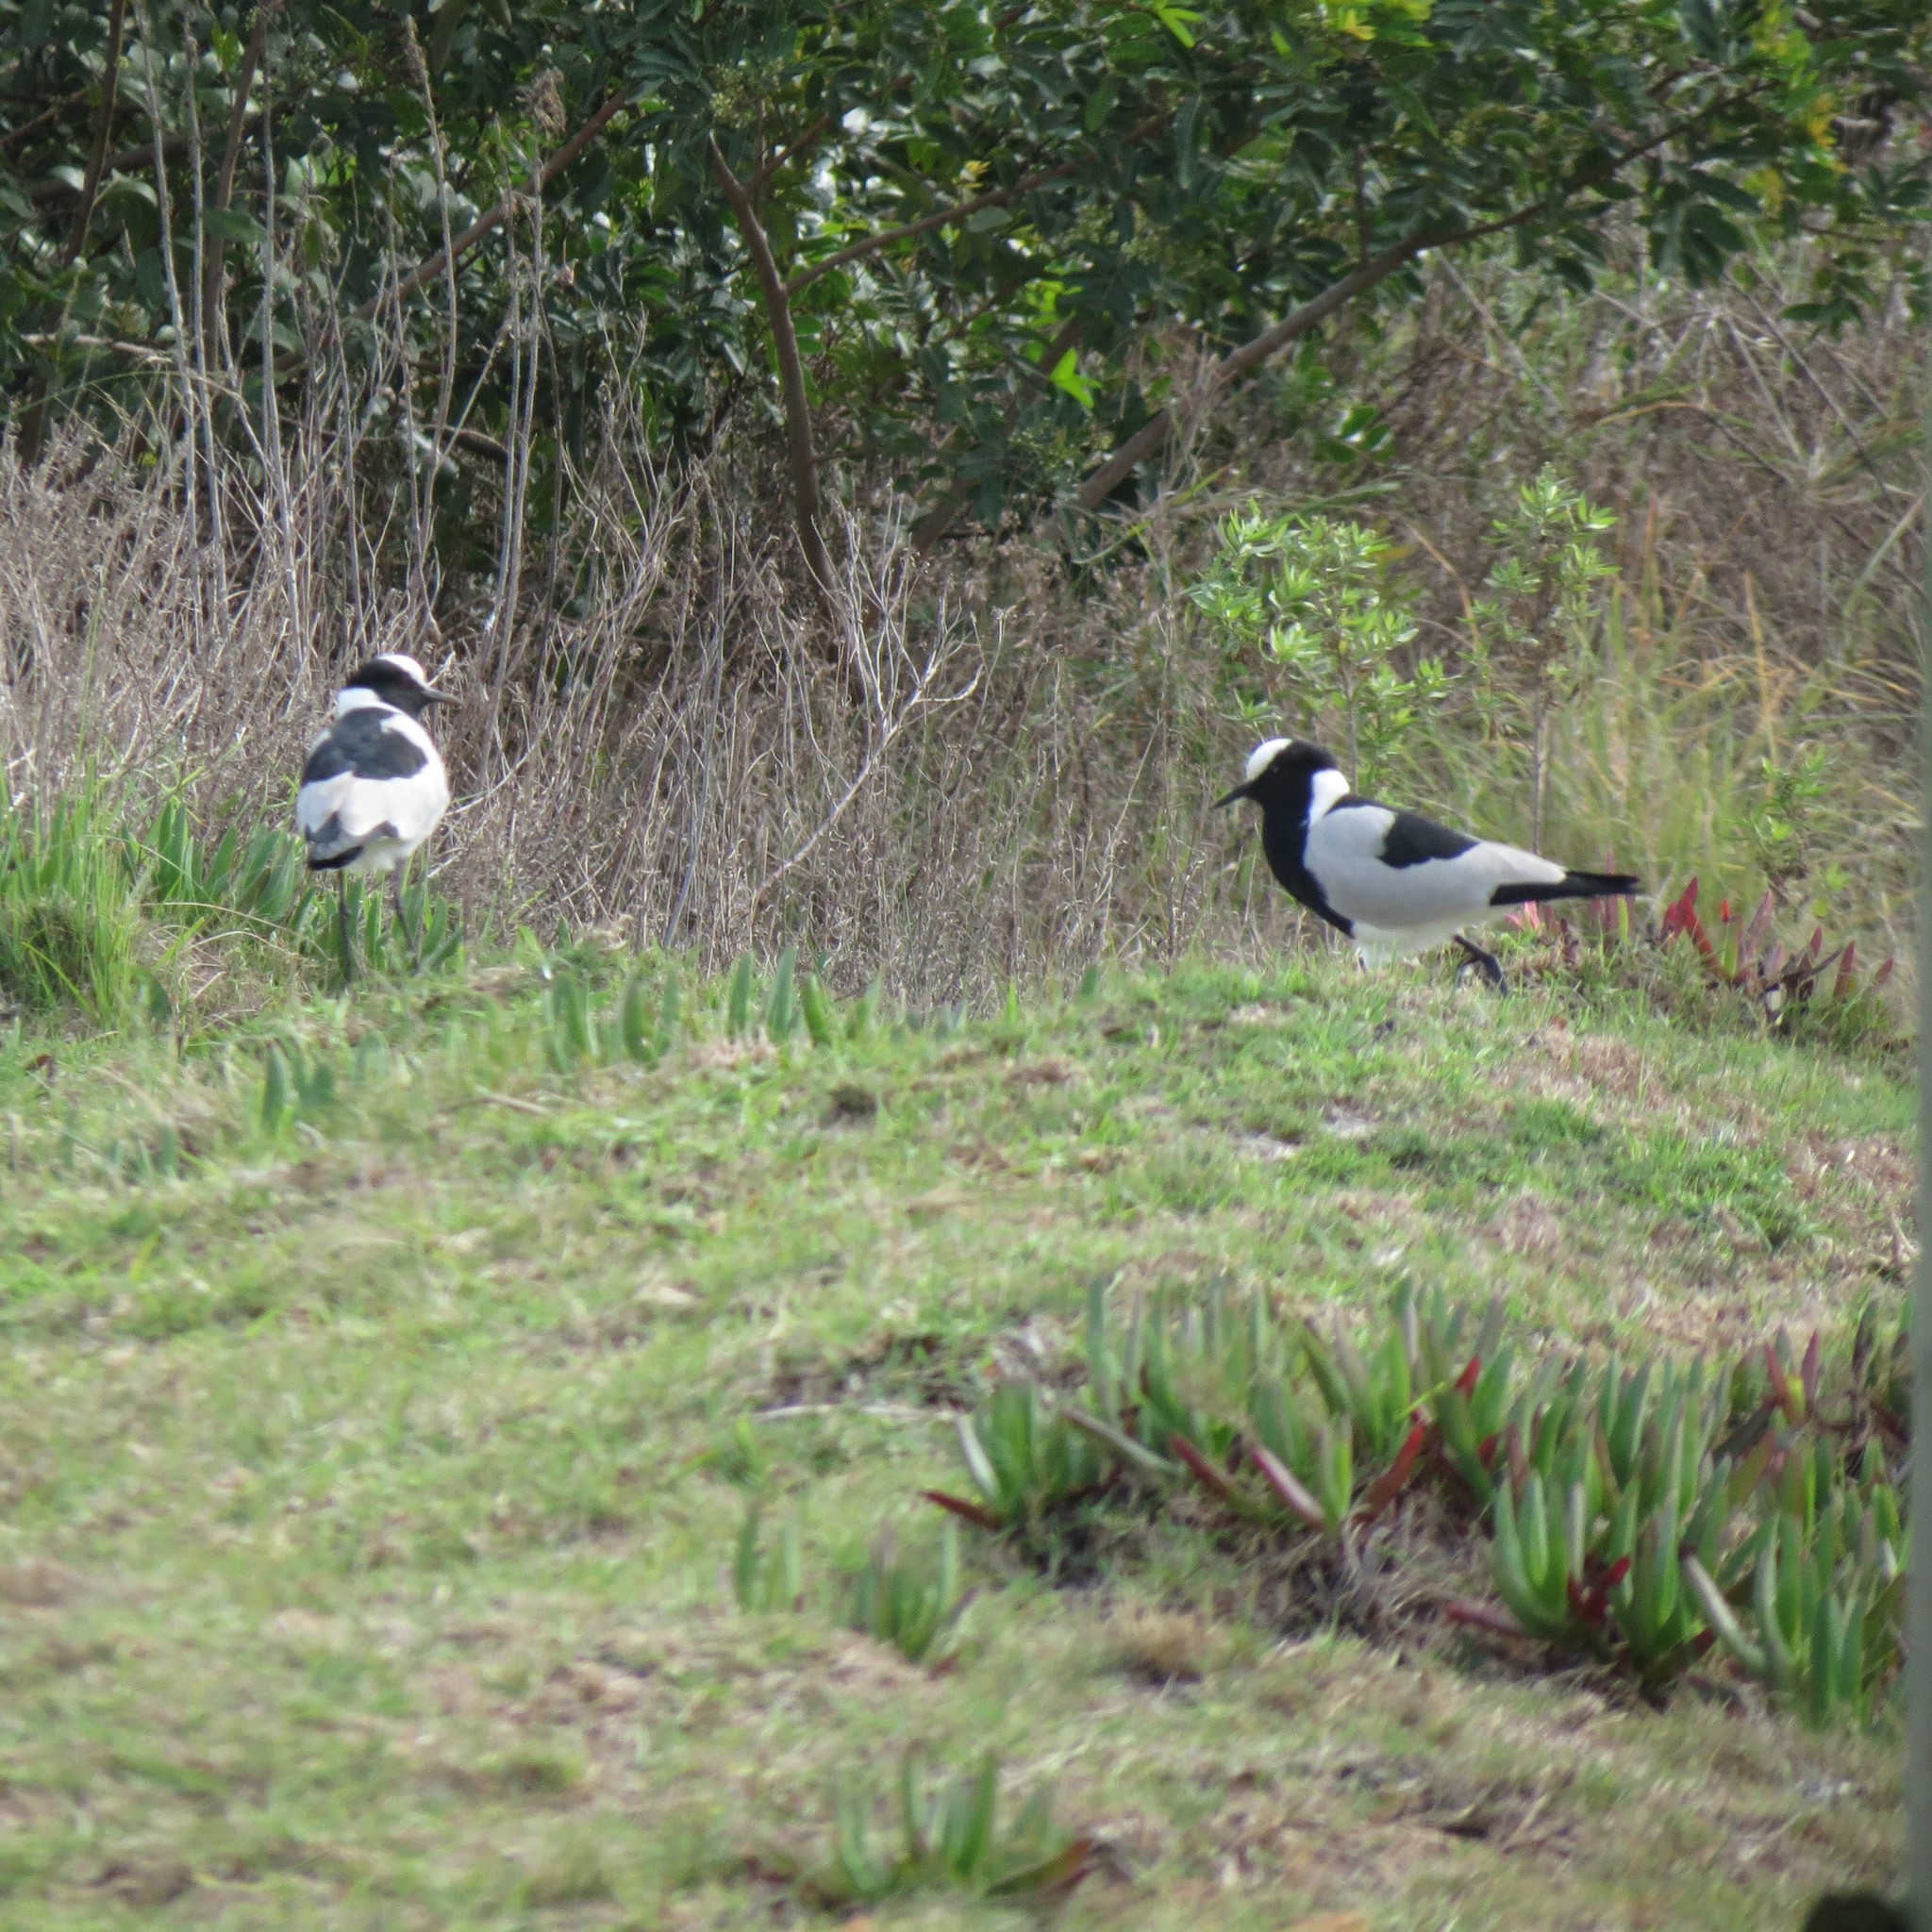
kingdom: Animalia
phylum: Chordata
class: Aves
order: Charadriiformes
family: Charadriidae
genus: Vanellus
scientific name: Vanellus armatus
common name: Blacksmith lapwing
